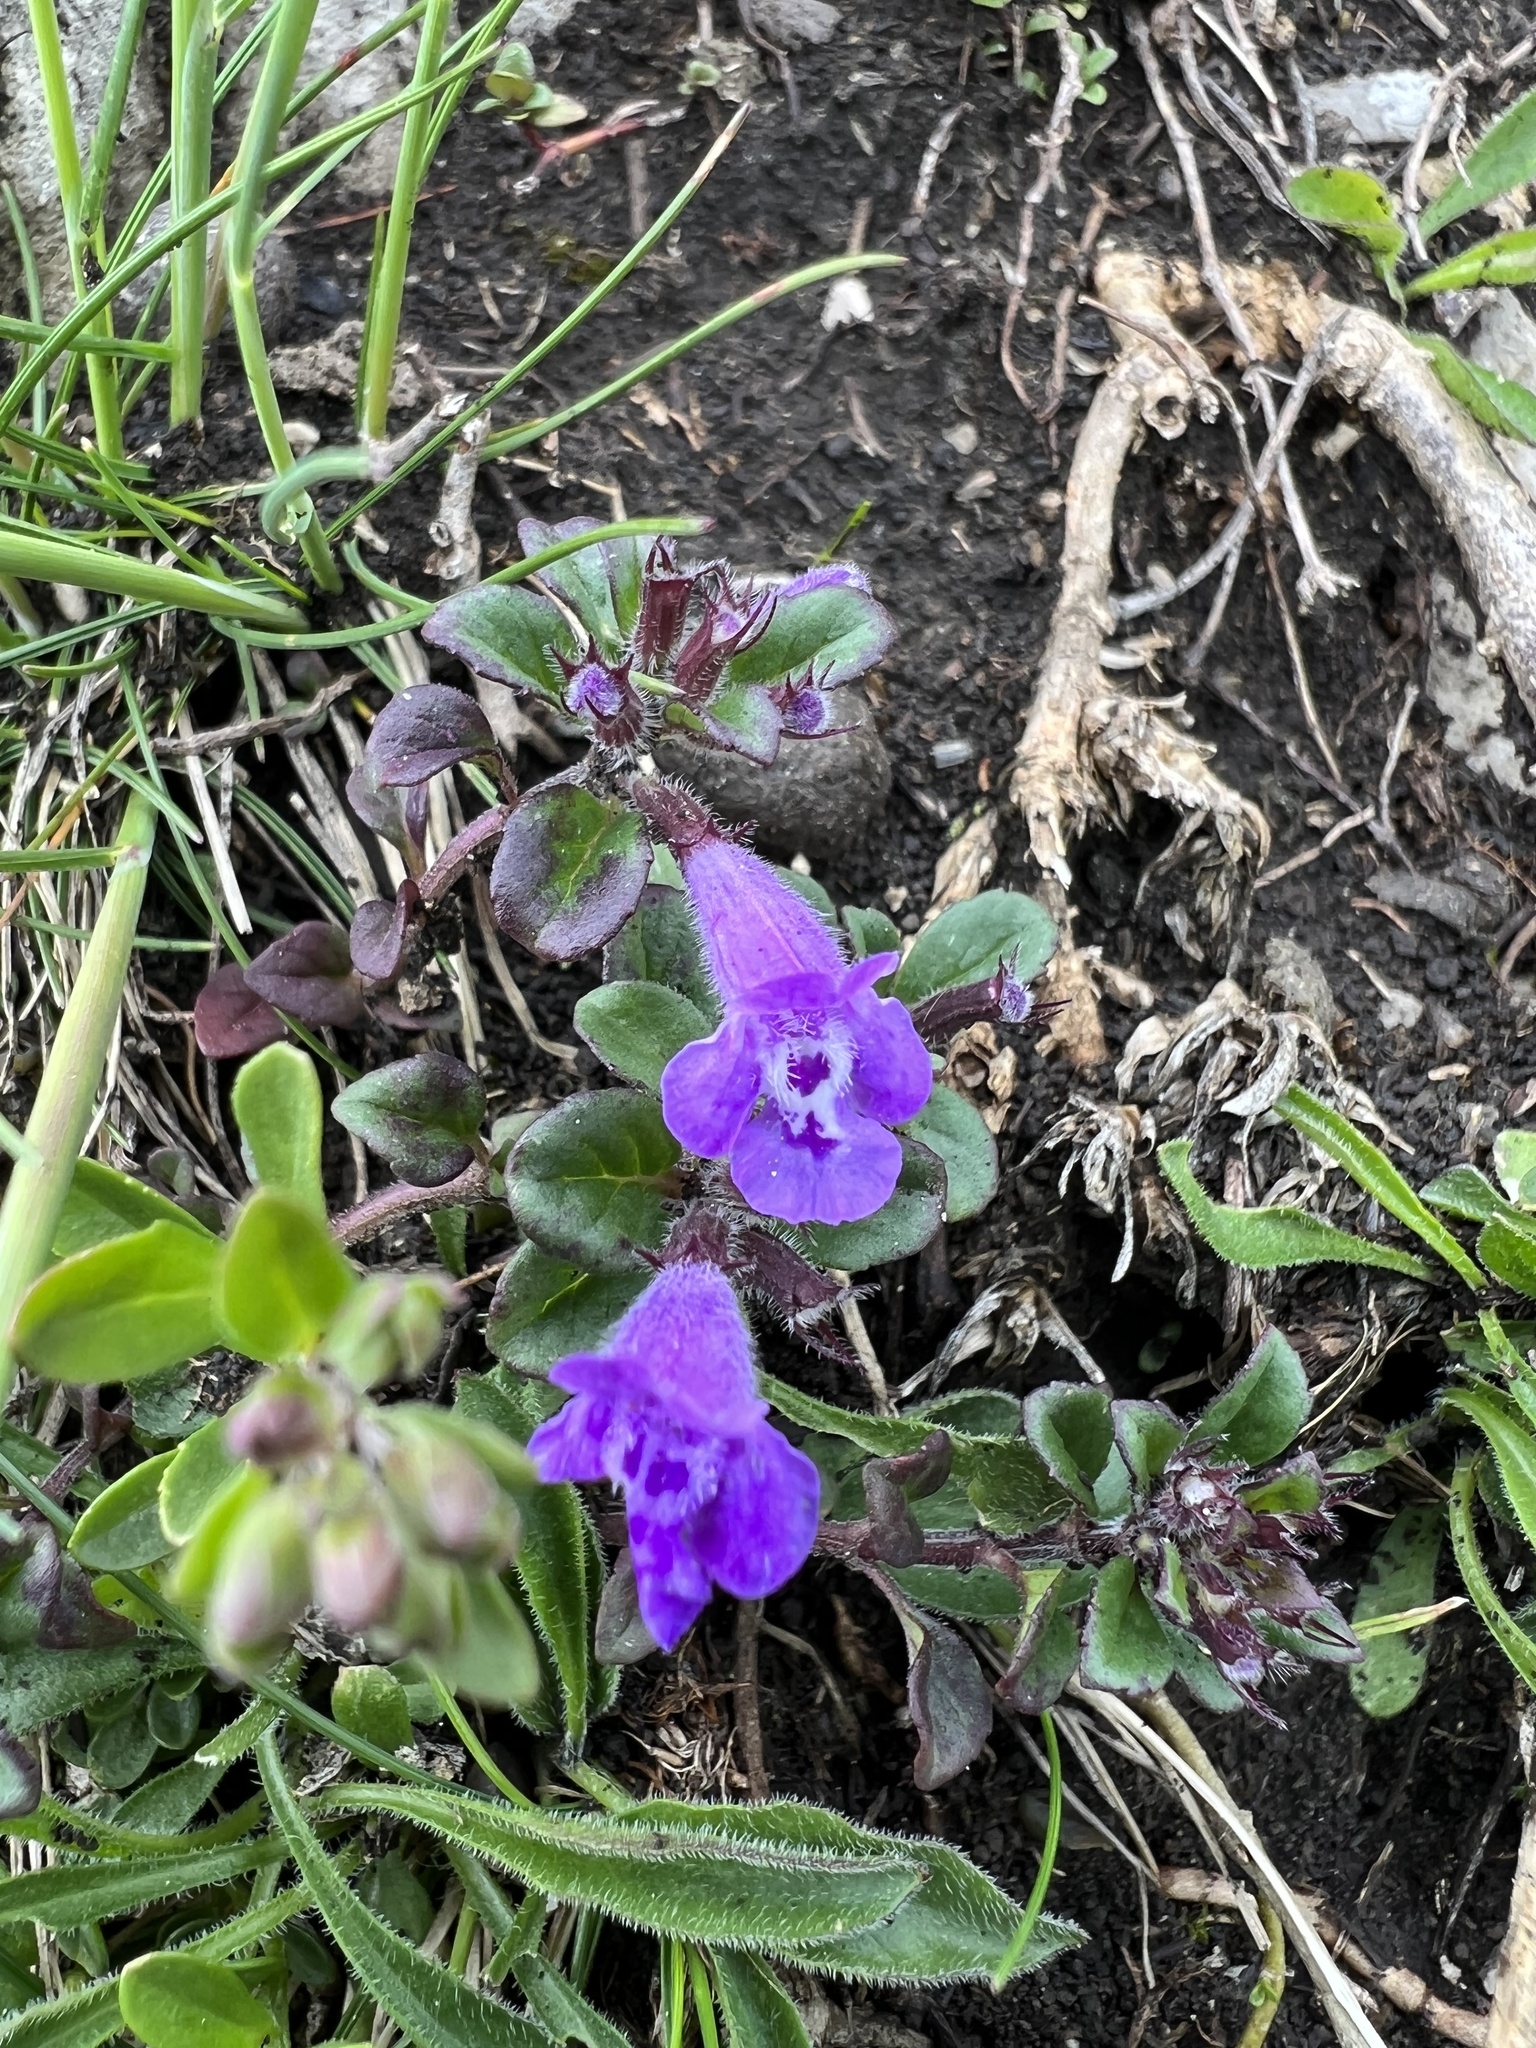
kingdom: Plantae
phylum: Tracheophyta
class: Magnoliopsida
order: Lamiales
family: Lamiaceae
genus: Clinopodium
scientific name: Clinopodium alpinum
